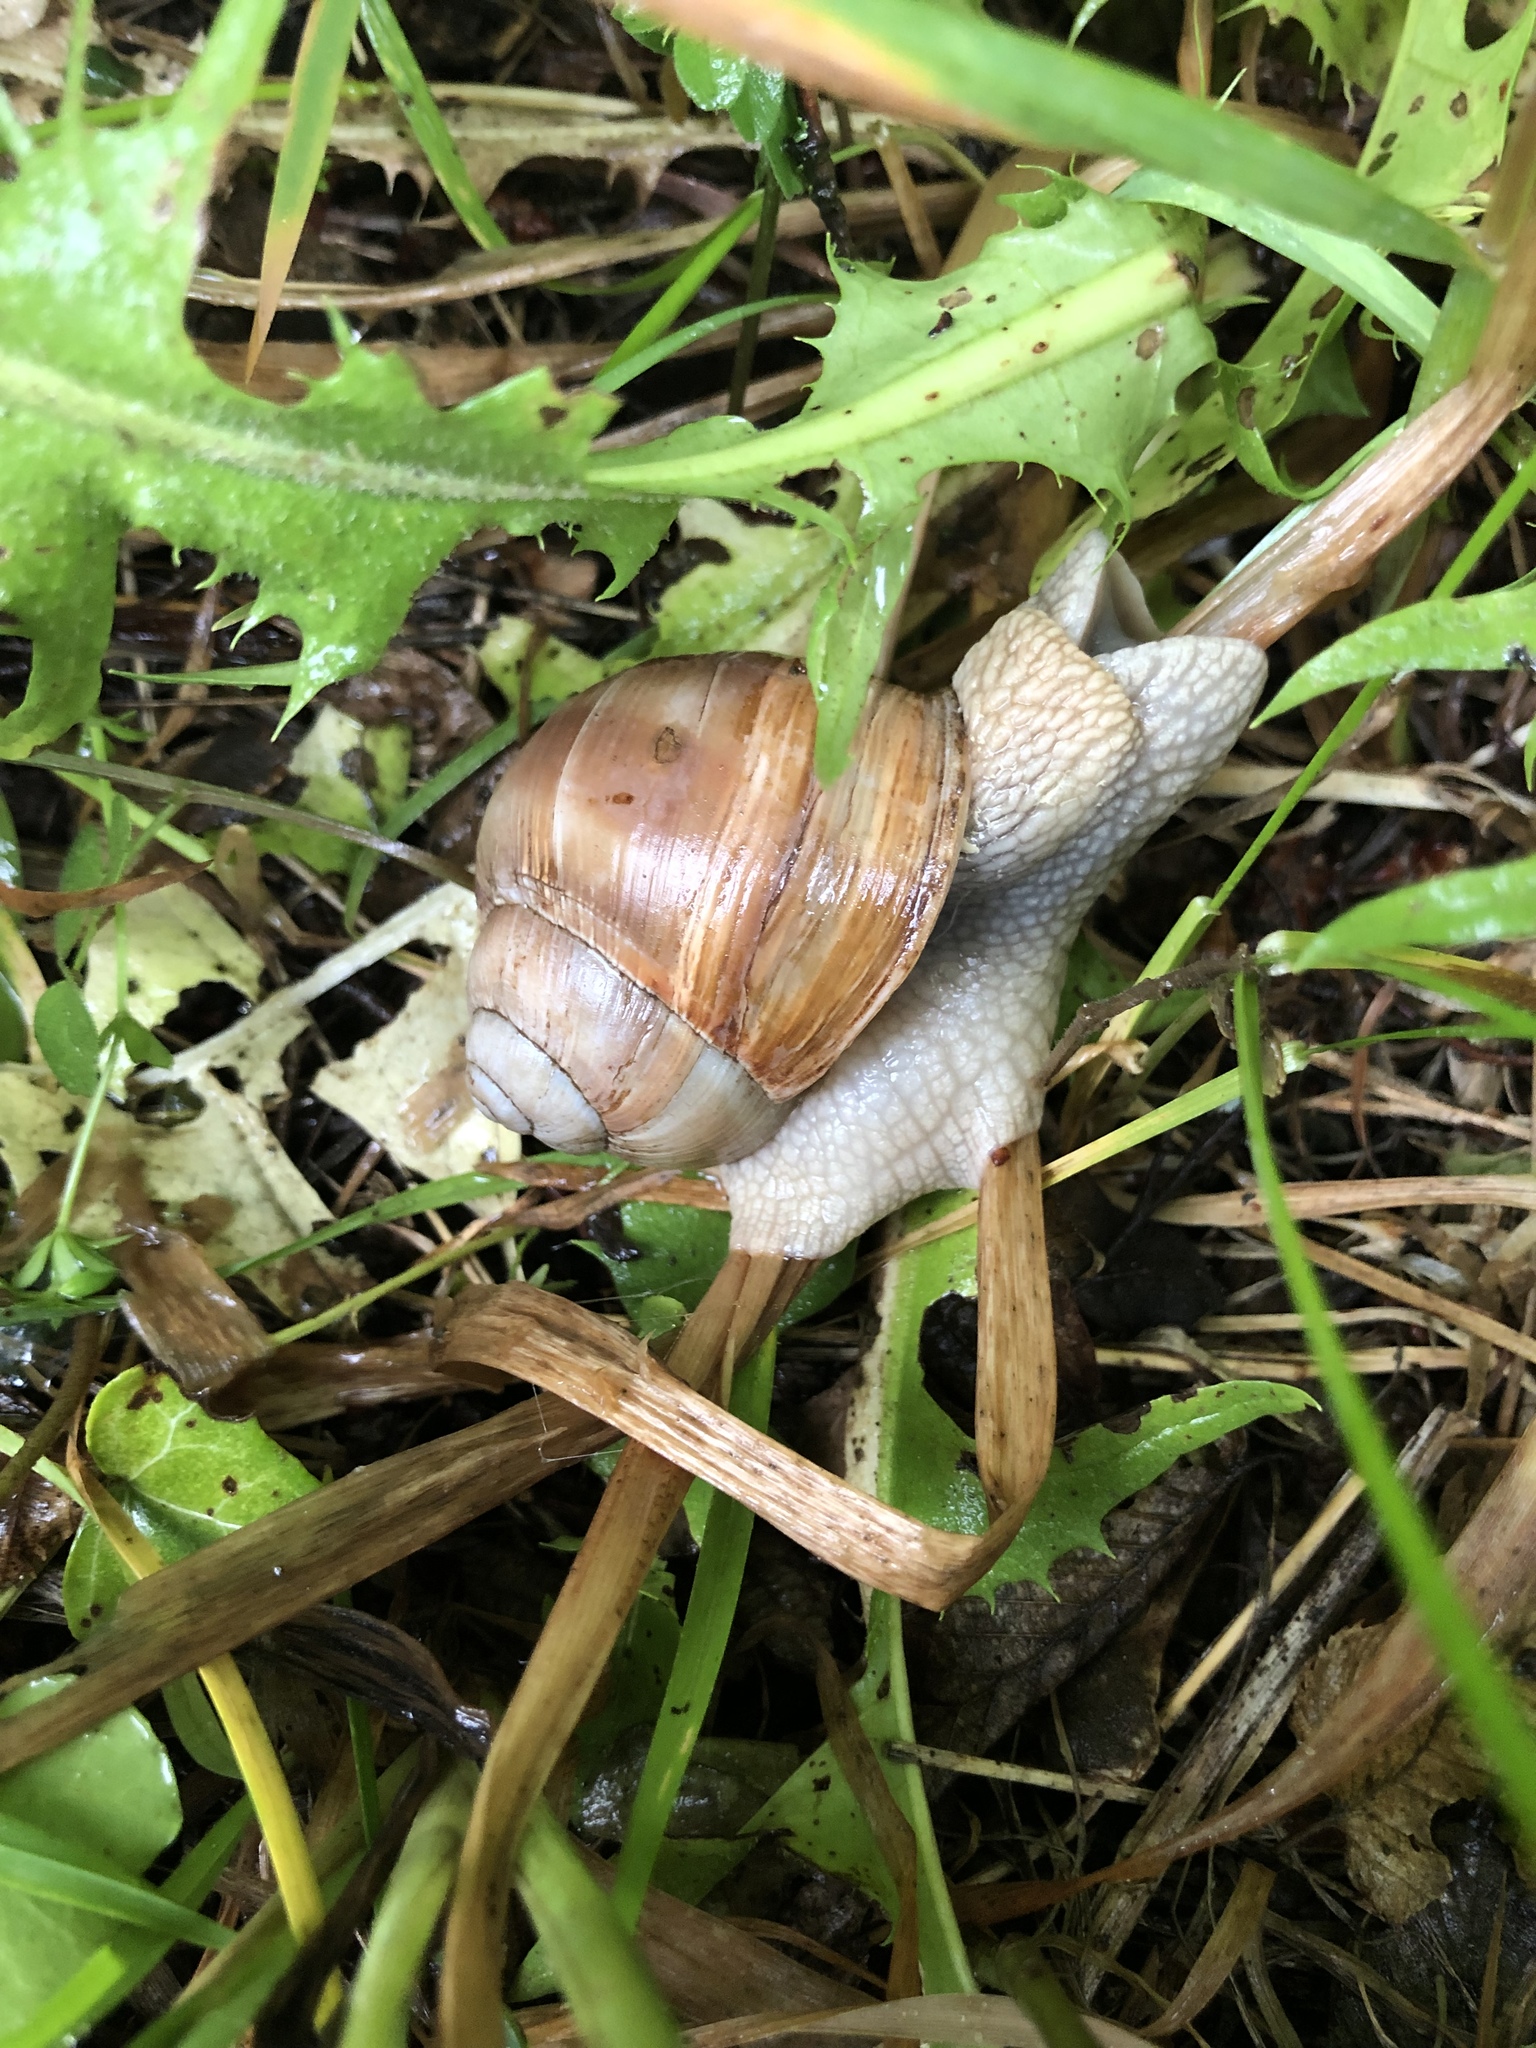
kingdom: Animalia
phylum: Mollusca
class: Gastropoda
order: Stylommatophora
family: Helicidae
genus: Helix
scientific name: Helix pomatia
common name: Roman snail
